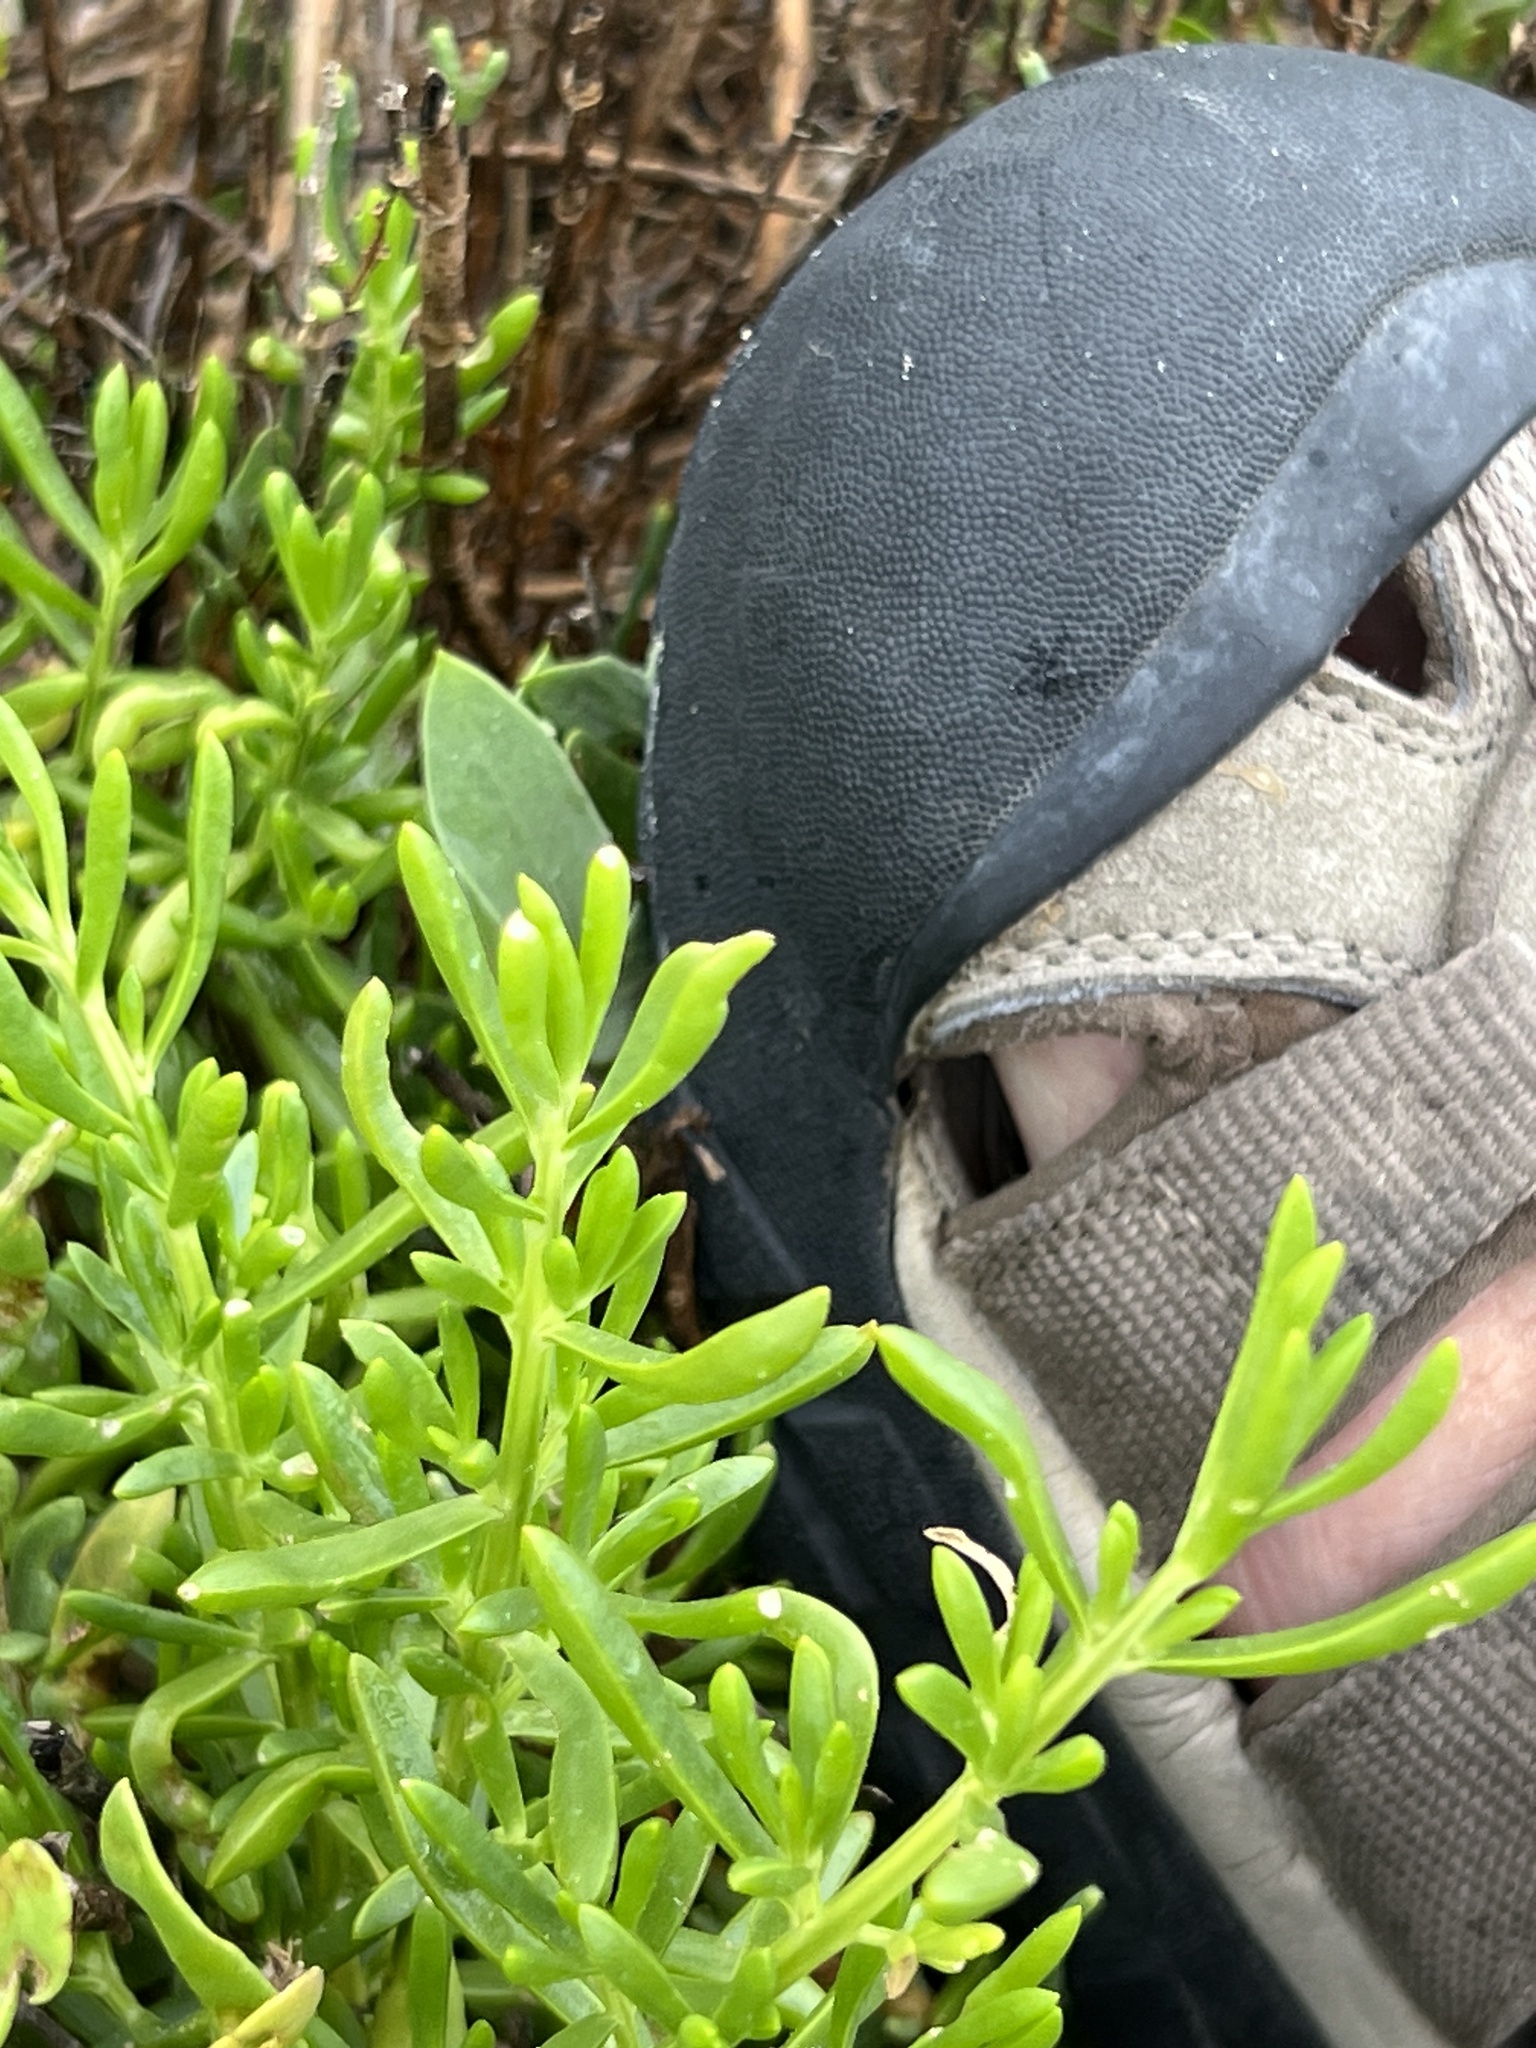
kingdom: Plantae
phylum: Tracheophyta
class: Magnoliopsida
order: Brassicales
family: Bataceae
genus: Batis
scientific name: Batis maritima
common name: Turtleweed
